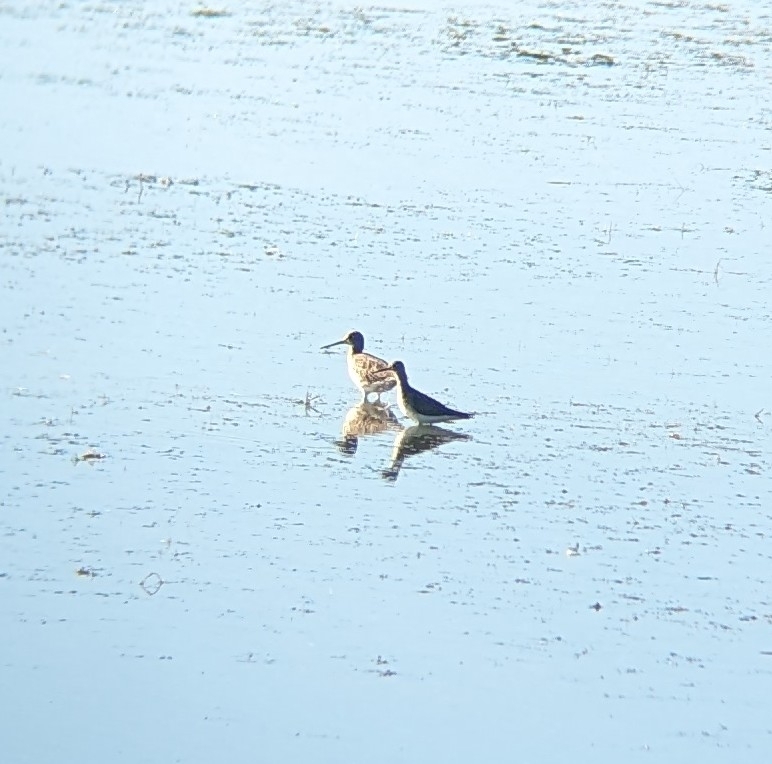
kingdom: Animalia
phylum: Chordata
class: Aves
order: Charadriiformes
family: Scolopacidae
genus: Tringa
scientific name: Tringa melanoleuca
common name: Greater yellowlegs
